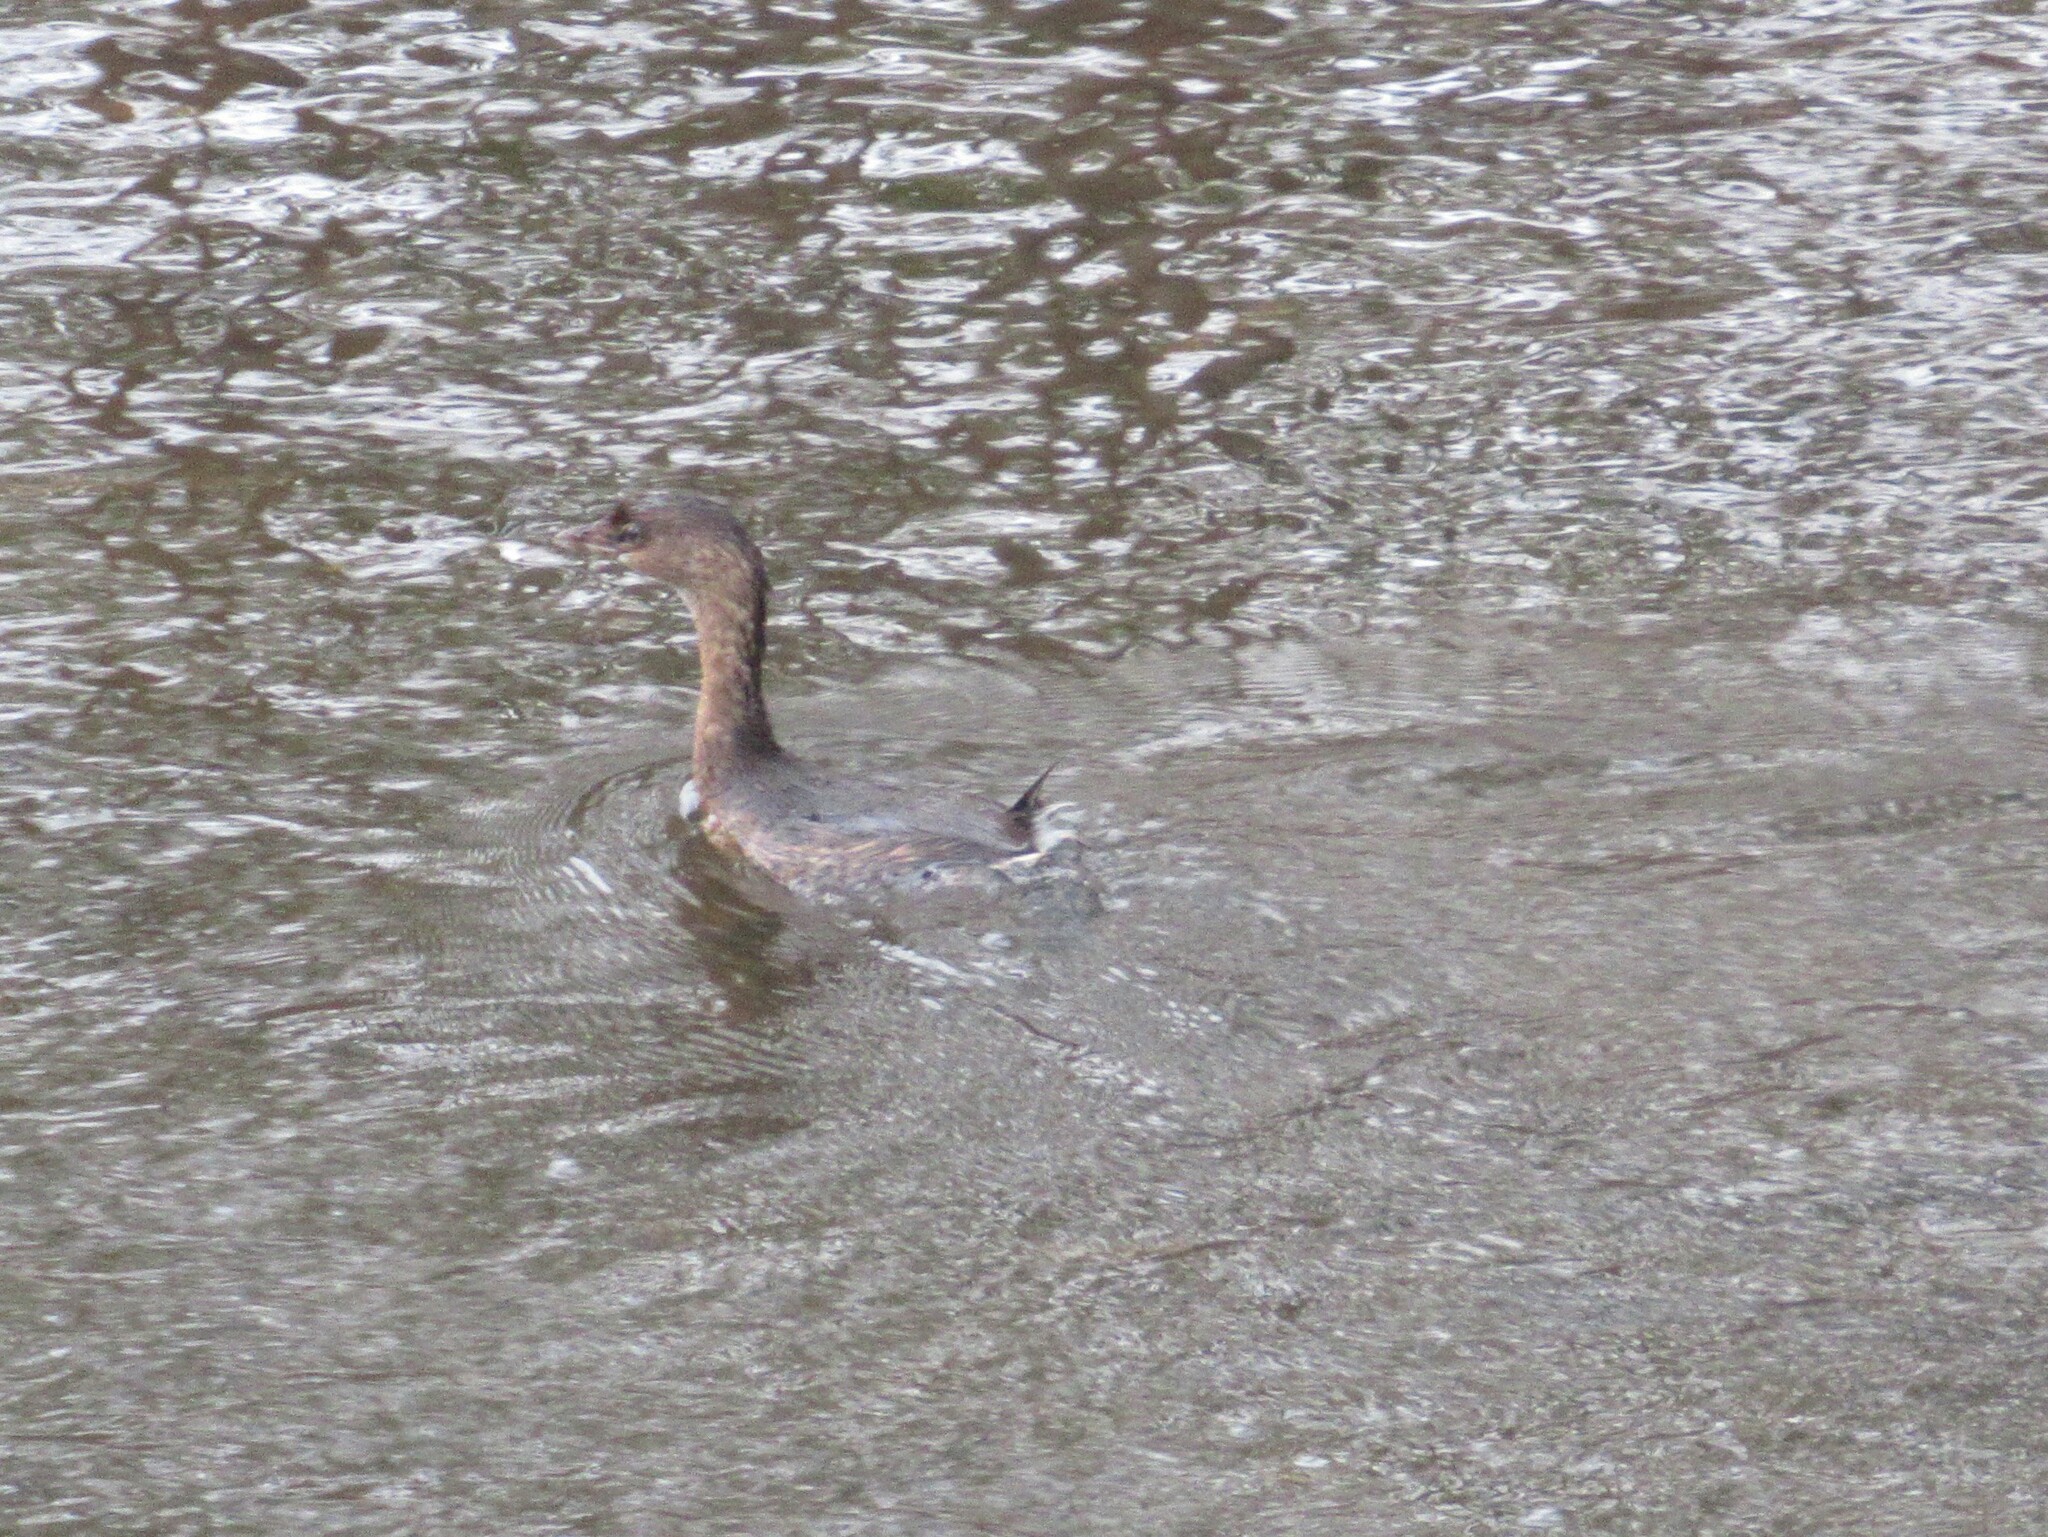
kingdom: Animalia
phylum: Chordata
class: Aves
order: Podicipediformes
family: Podicipedidae
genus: Podilymbus
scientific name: Podilymbus podiceps
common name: Pied-billed grebe
